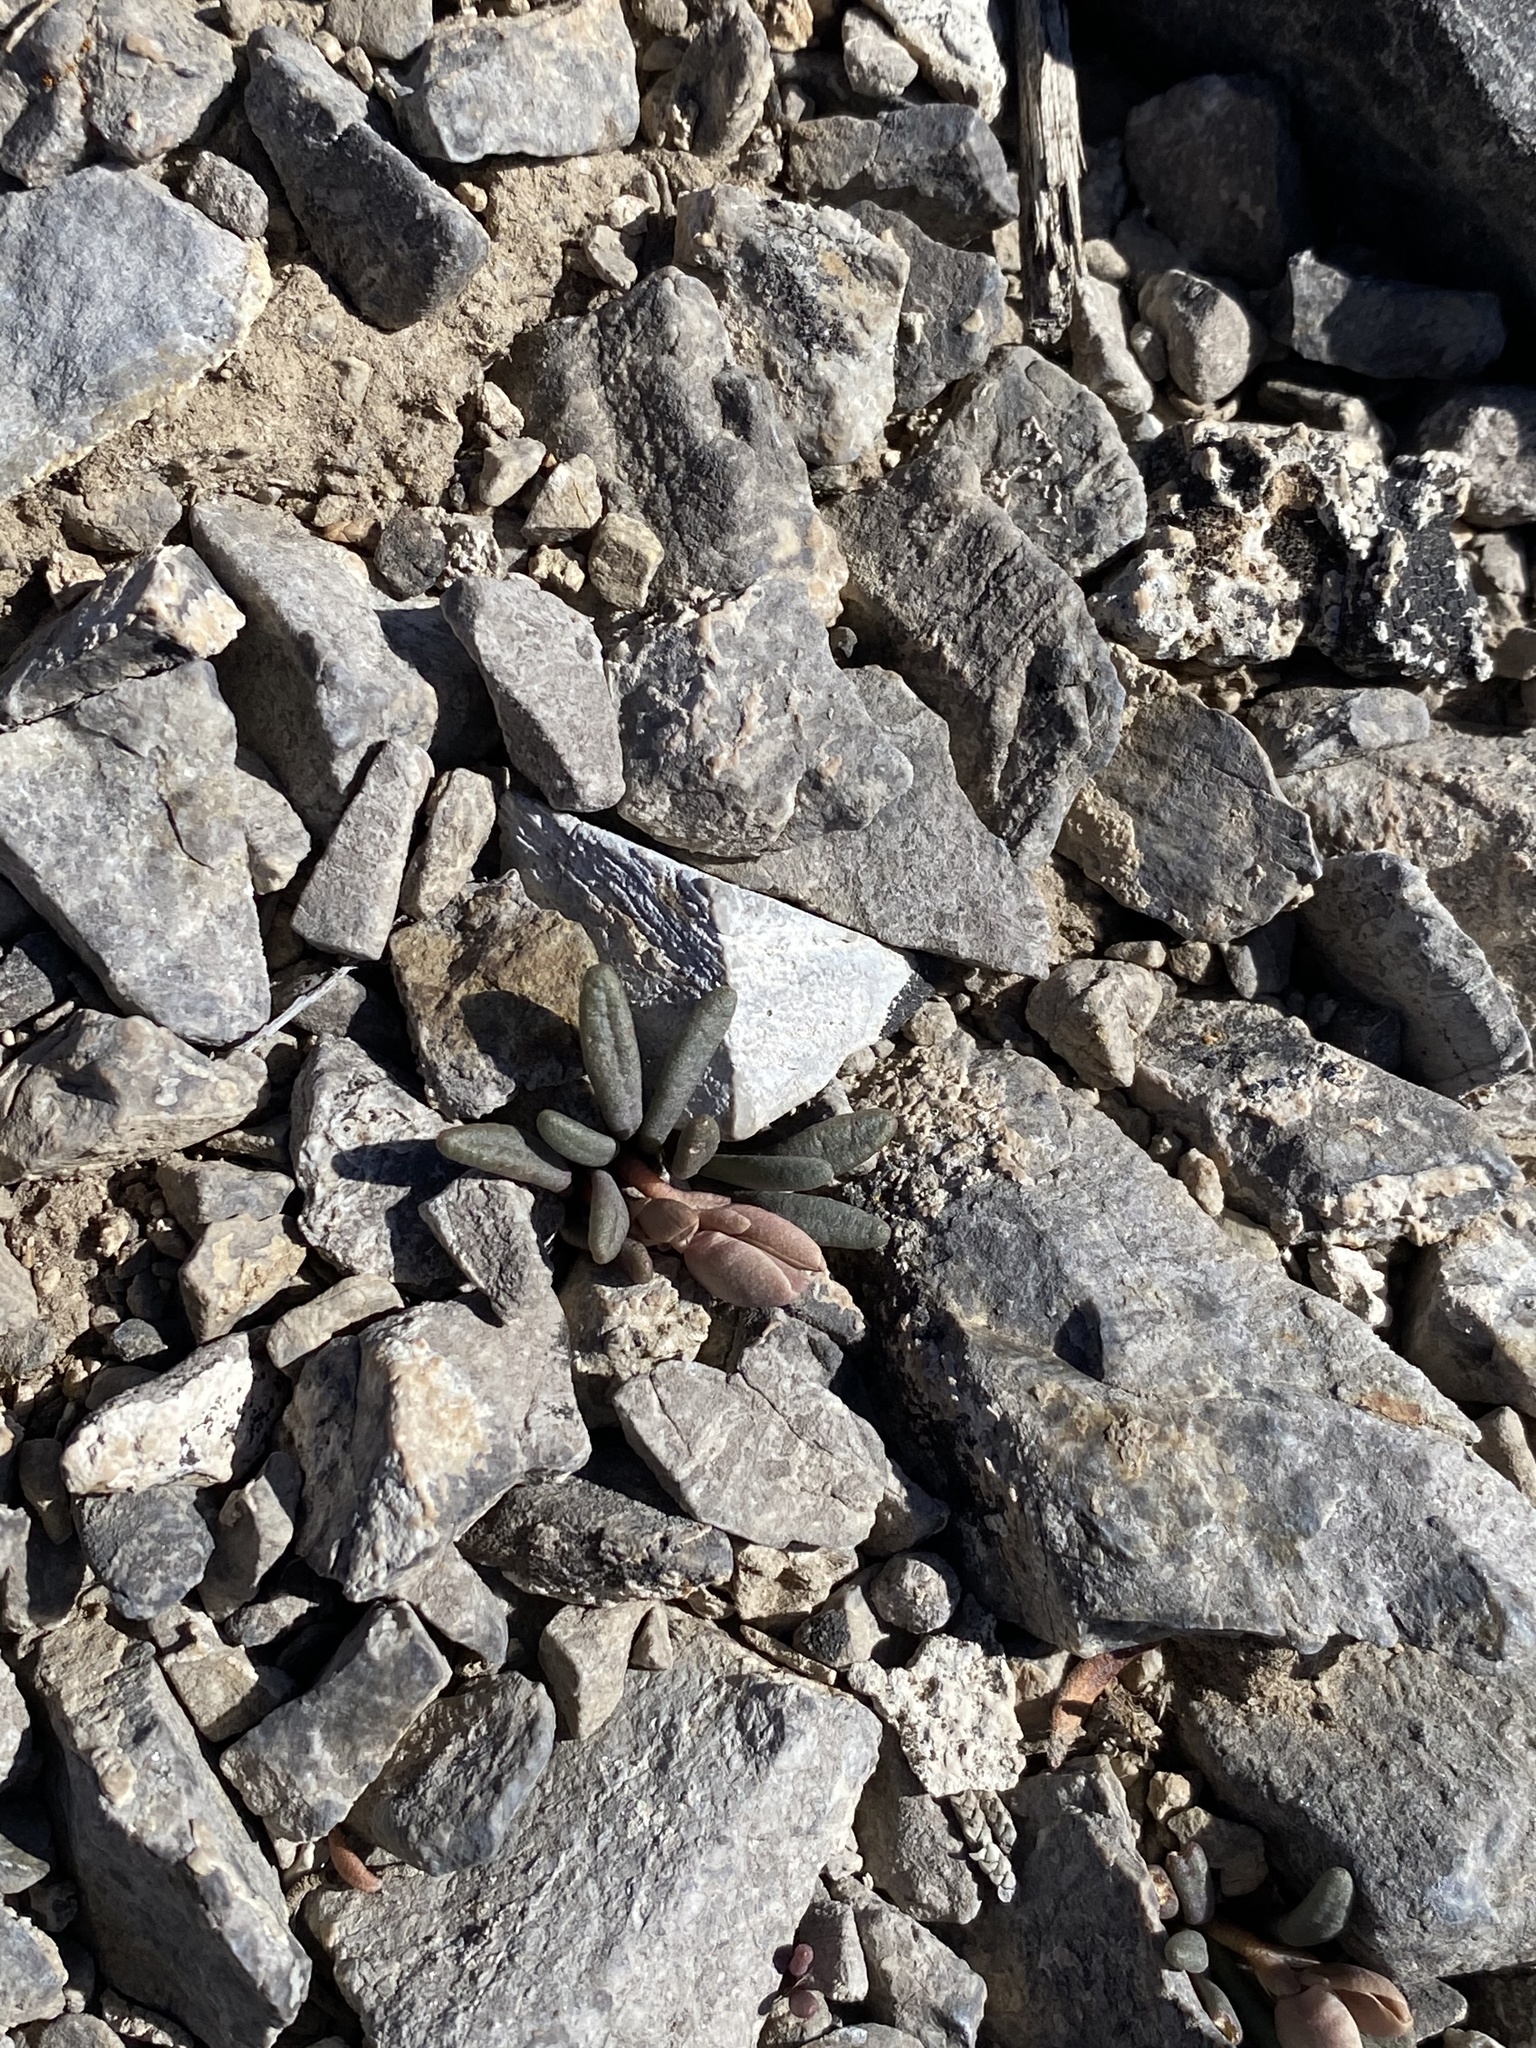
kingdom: Plantae
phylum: Tracheophyta
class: Magnoliopsida
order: Caryophyllales
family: Montiaceae
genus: Lewisia
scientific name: Lewisia maguirei
